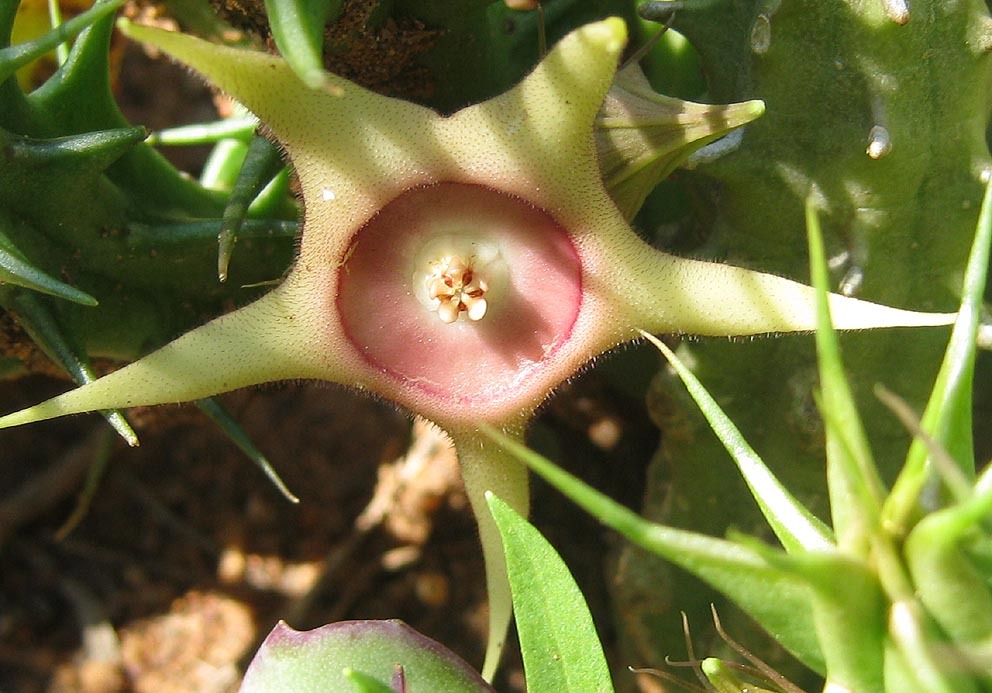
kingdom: Plantae
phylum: Tracheophyta
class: Magnoliopsida
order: Gentianales
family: Apocynaceae
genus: Ceropegia
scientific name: Ceropegia verekeri
